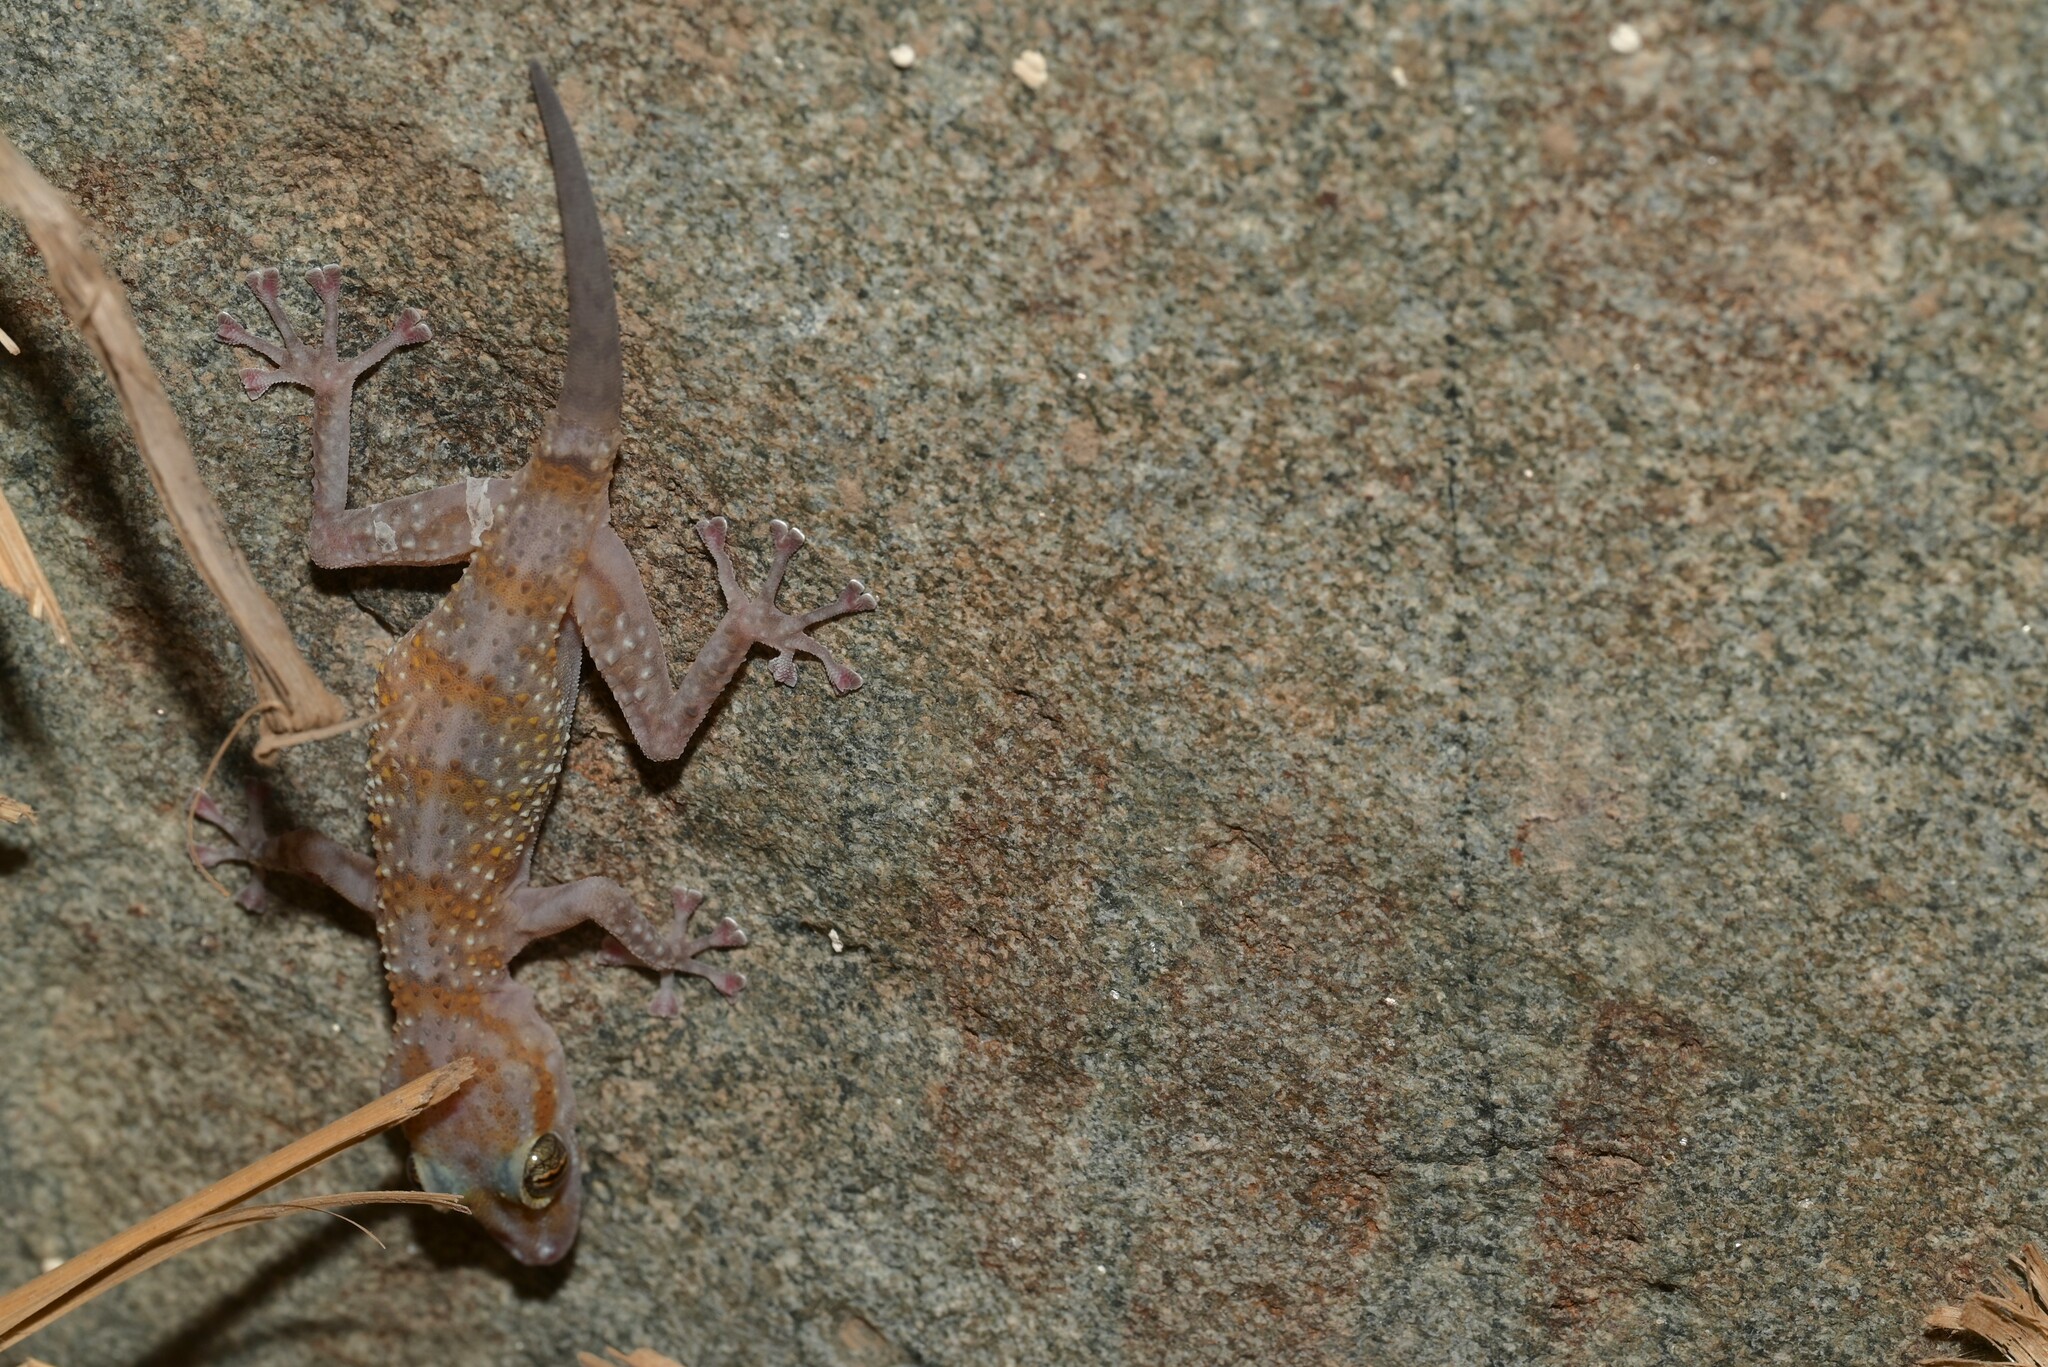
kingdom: Animalia
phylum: Chordata
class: Squamata
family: Phyllodactylidae
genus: Asaccus
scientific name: Asaccus margaritae
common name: Margarita’s leaf-toed gecko
